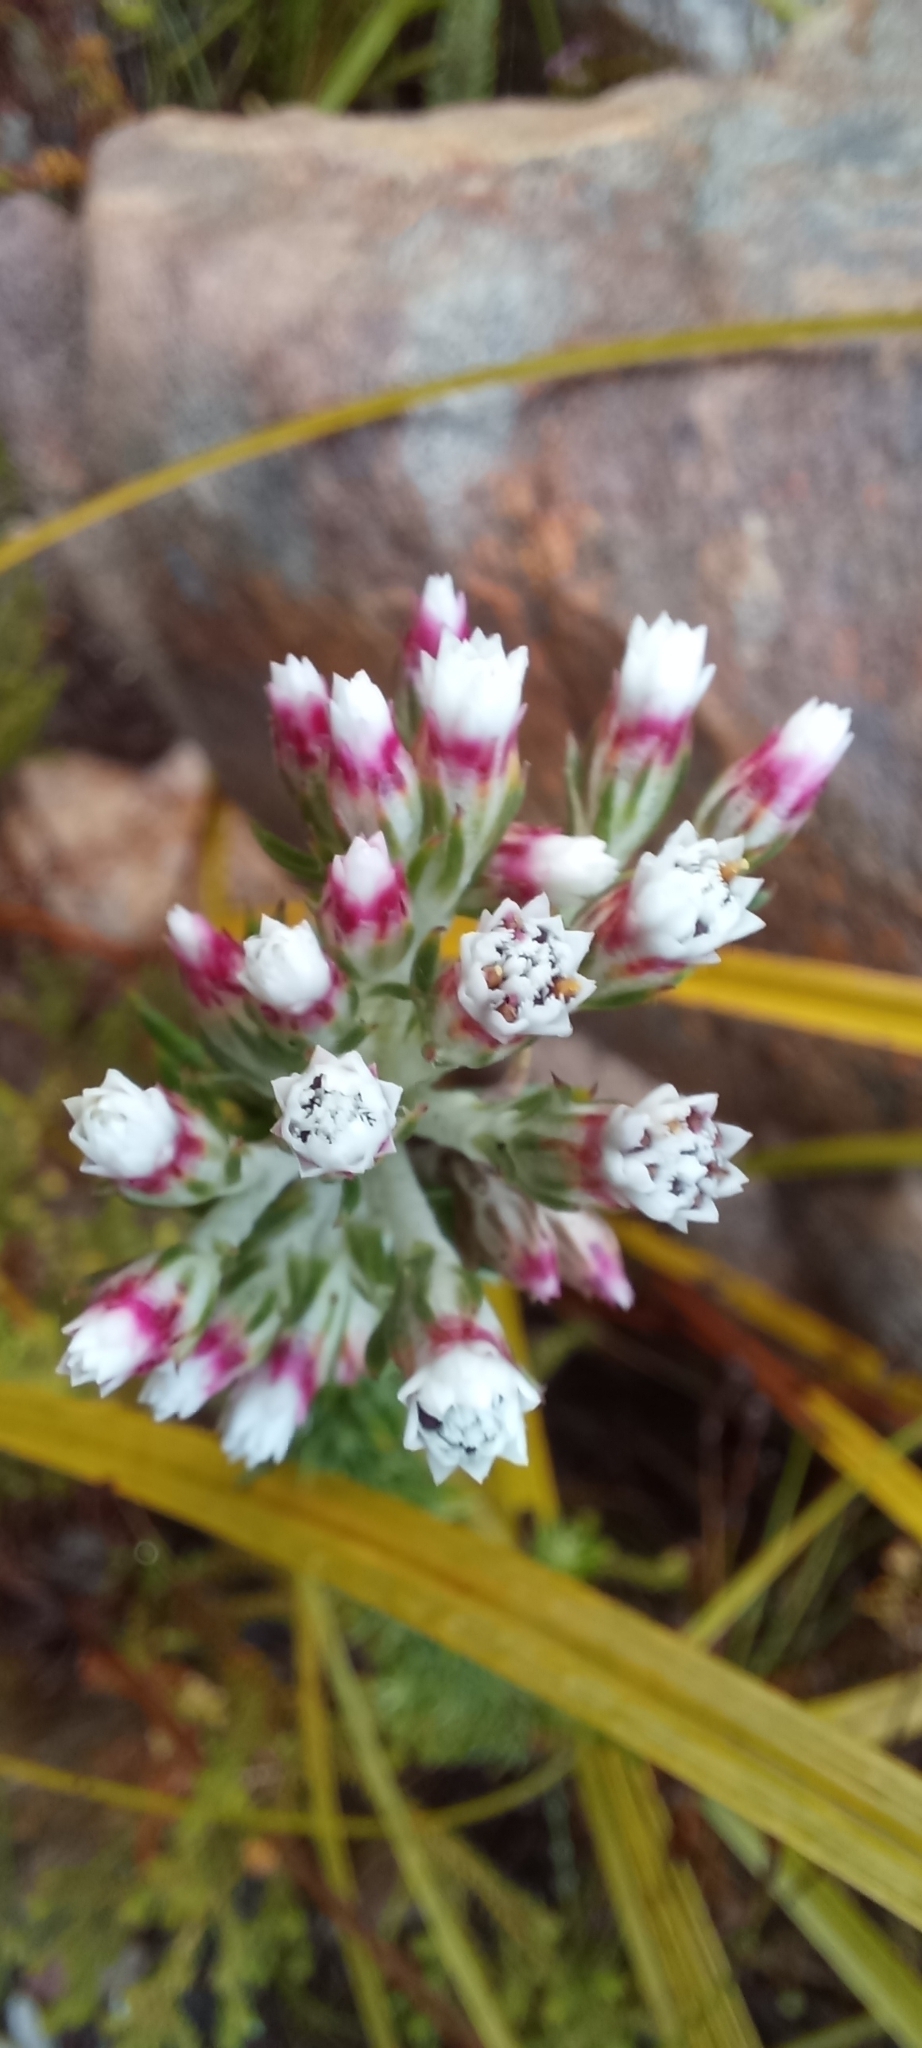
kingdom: Plantae
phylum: Tracheophyta
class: Magnoliopsida
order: Asterales
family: Asteraceae
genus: Metalasia
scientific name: Metalasia lichtensteinii
